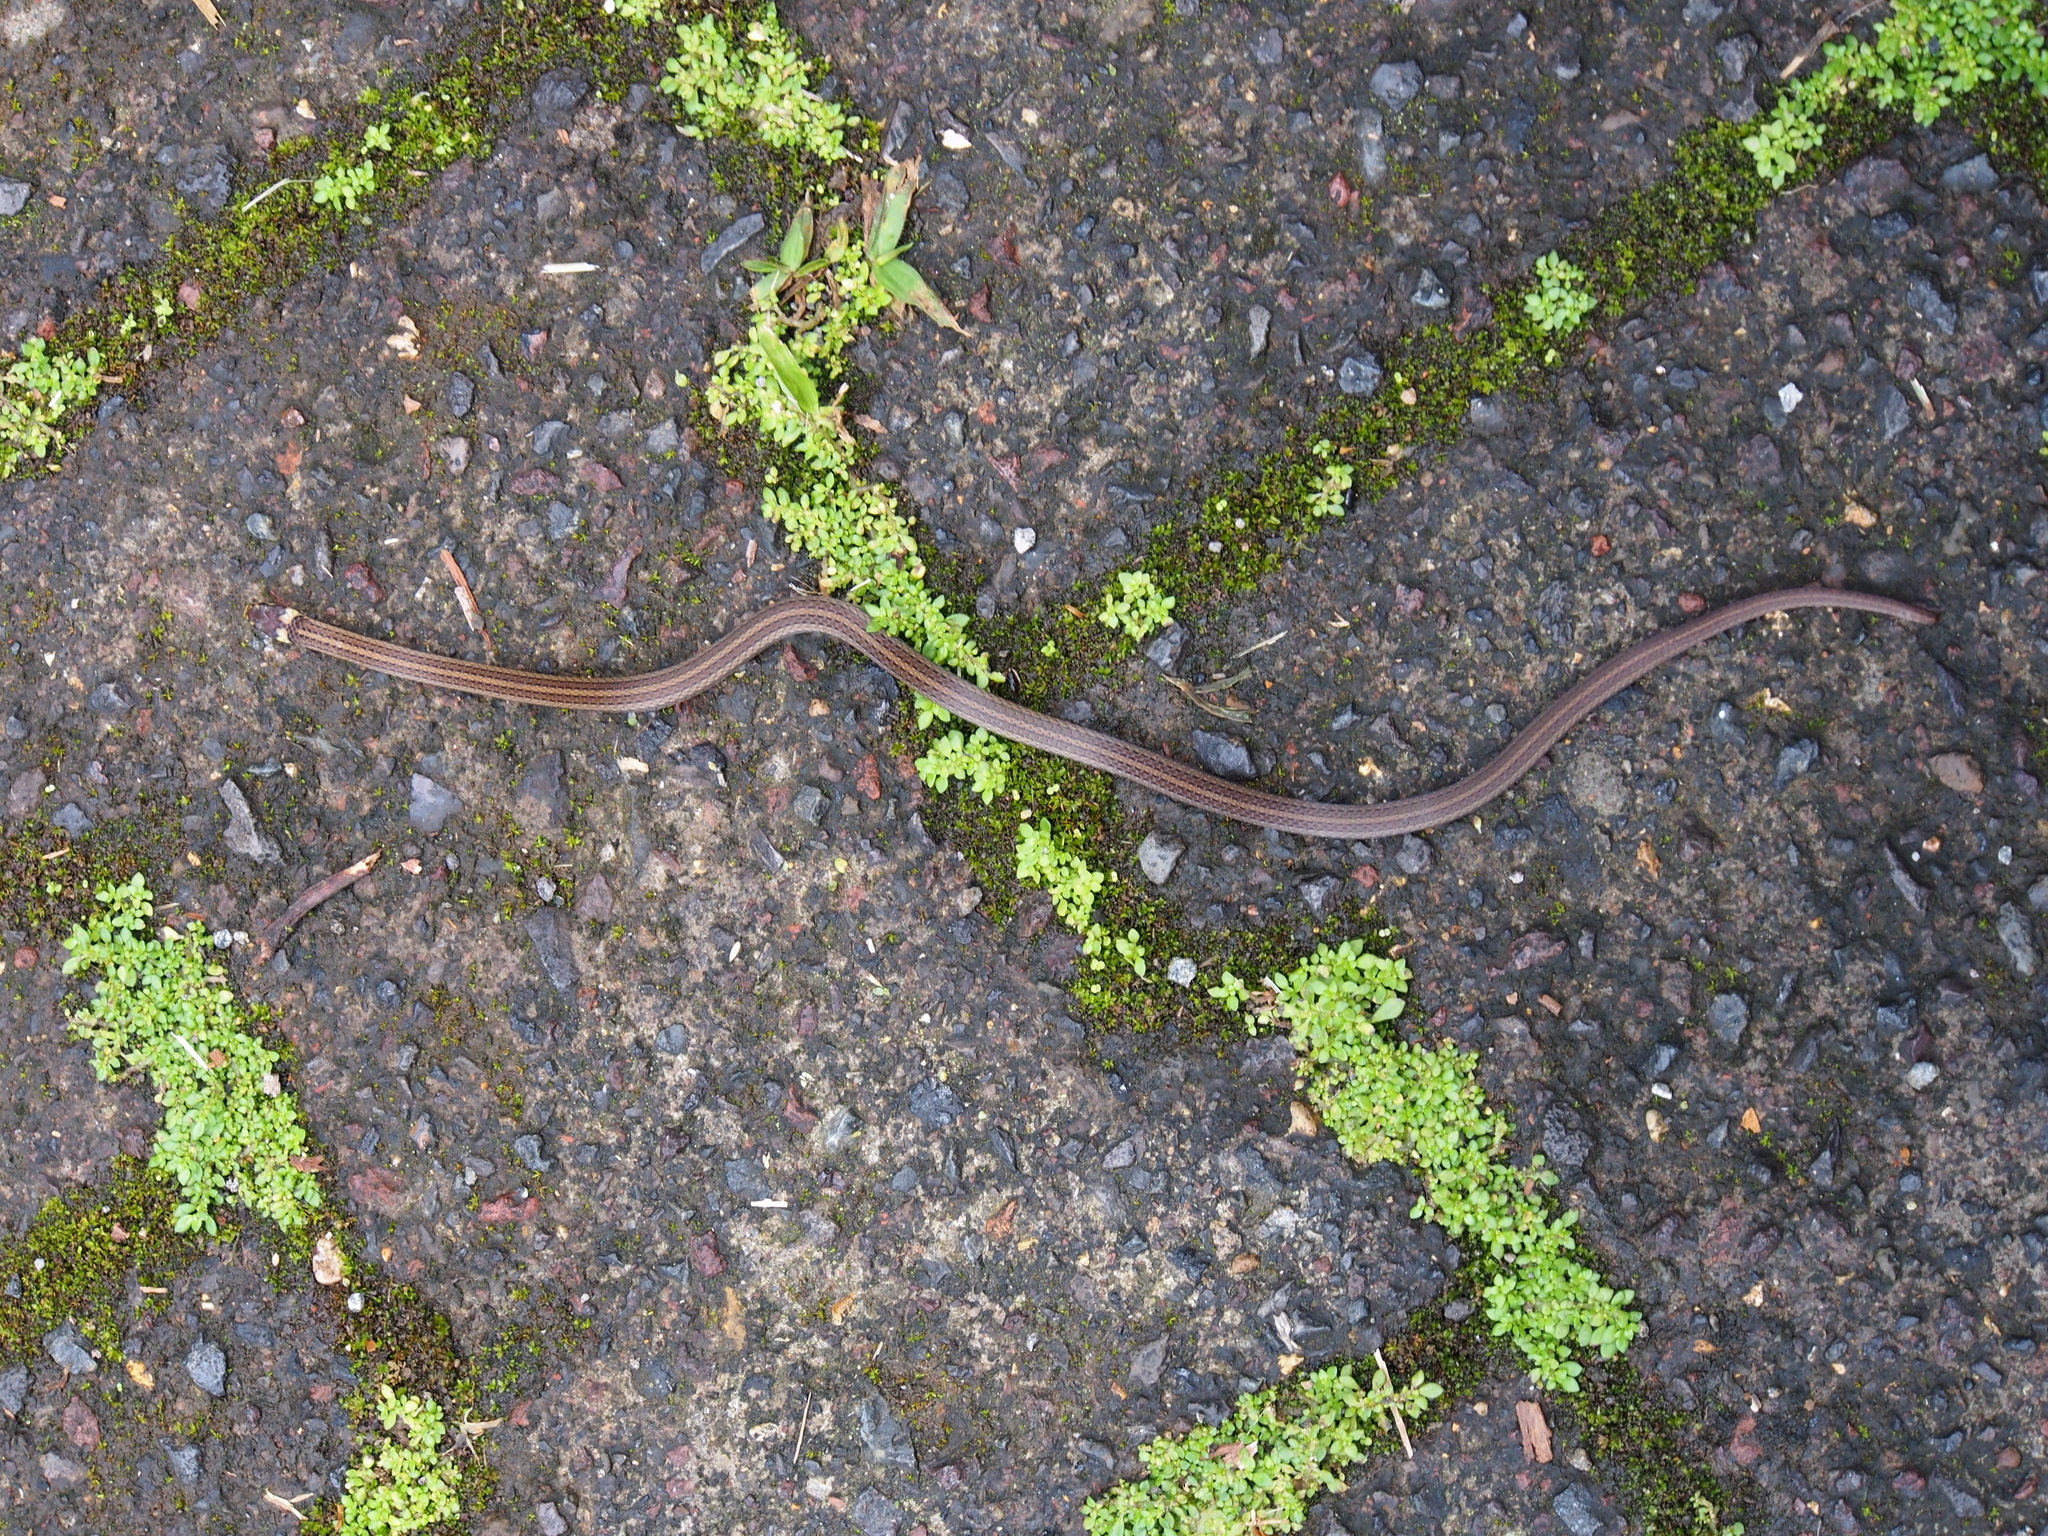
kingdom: Animalia
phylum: Chordata
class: Squamata
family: Colubridae
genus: Tantilla
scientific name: Tantilla reticulata
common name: Litter snake
